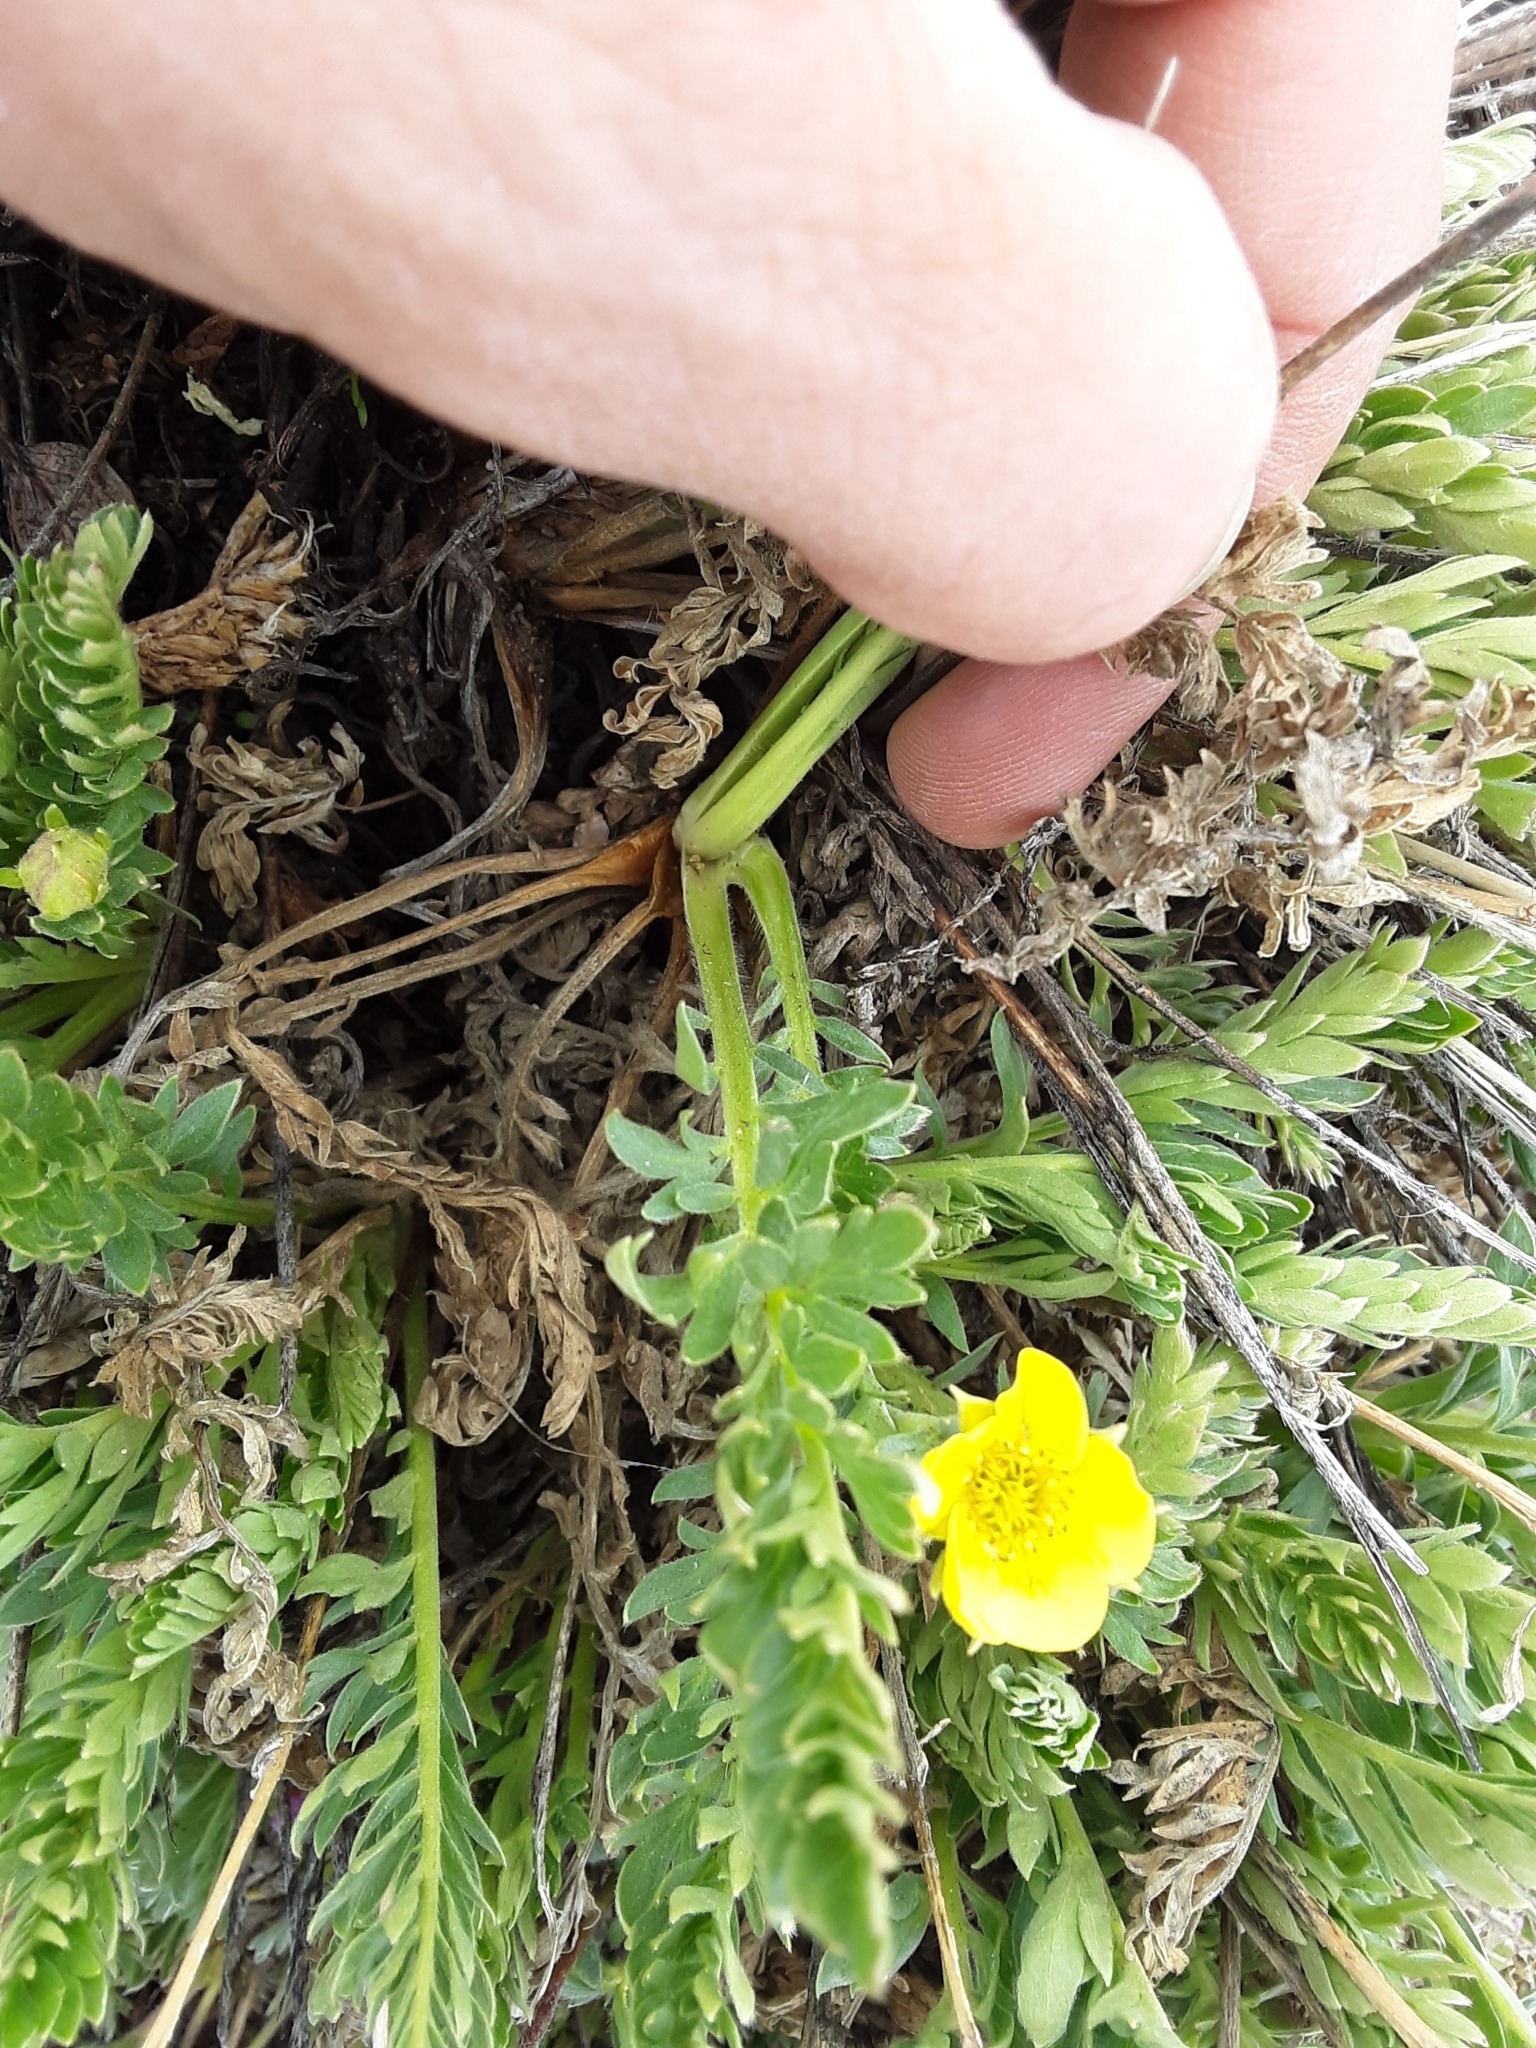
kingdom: Plantae
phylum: Tracheophyta
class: Magnoliopsida
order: Rosales
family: Rosaceae
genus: Geum
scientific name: Geum rossii
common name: Alpine avens
